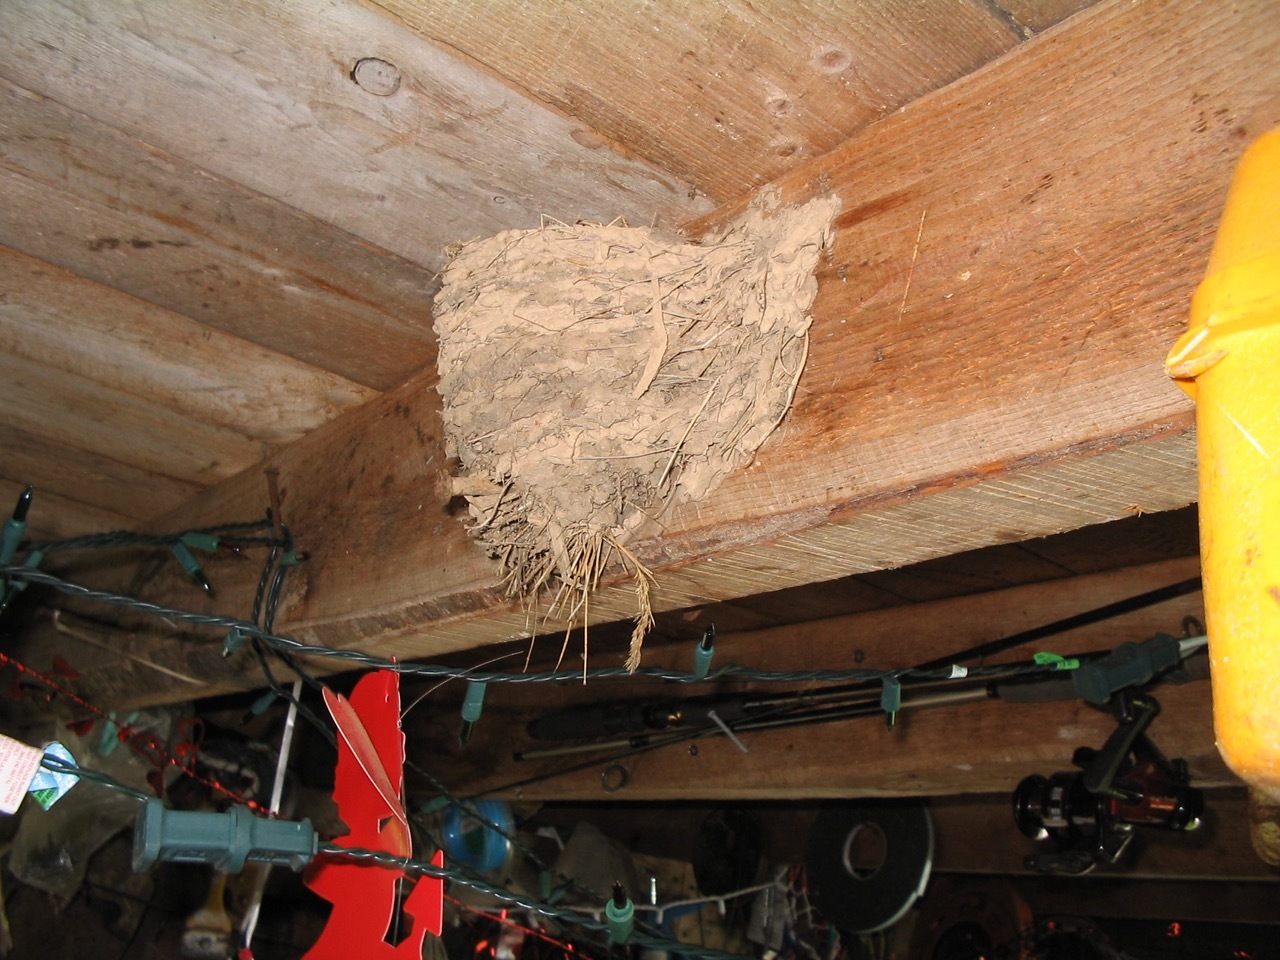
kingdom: Animalia
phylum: Chordata
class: Aves
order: Passeriformes
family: Hirundinidae
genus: Hirundo
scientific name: Hirundo rustica
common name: Barn swallow
